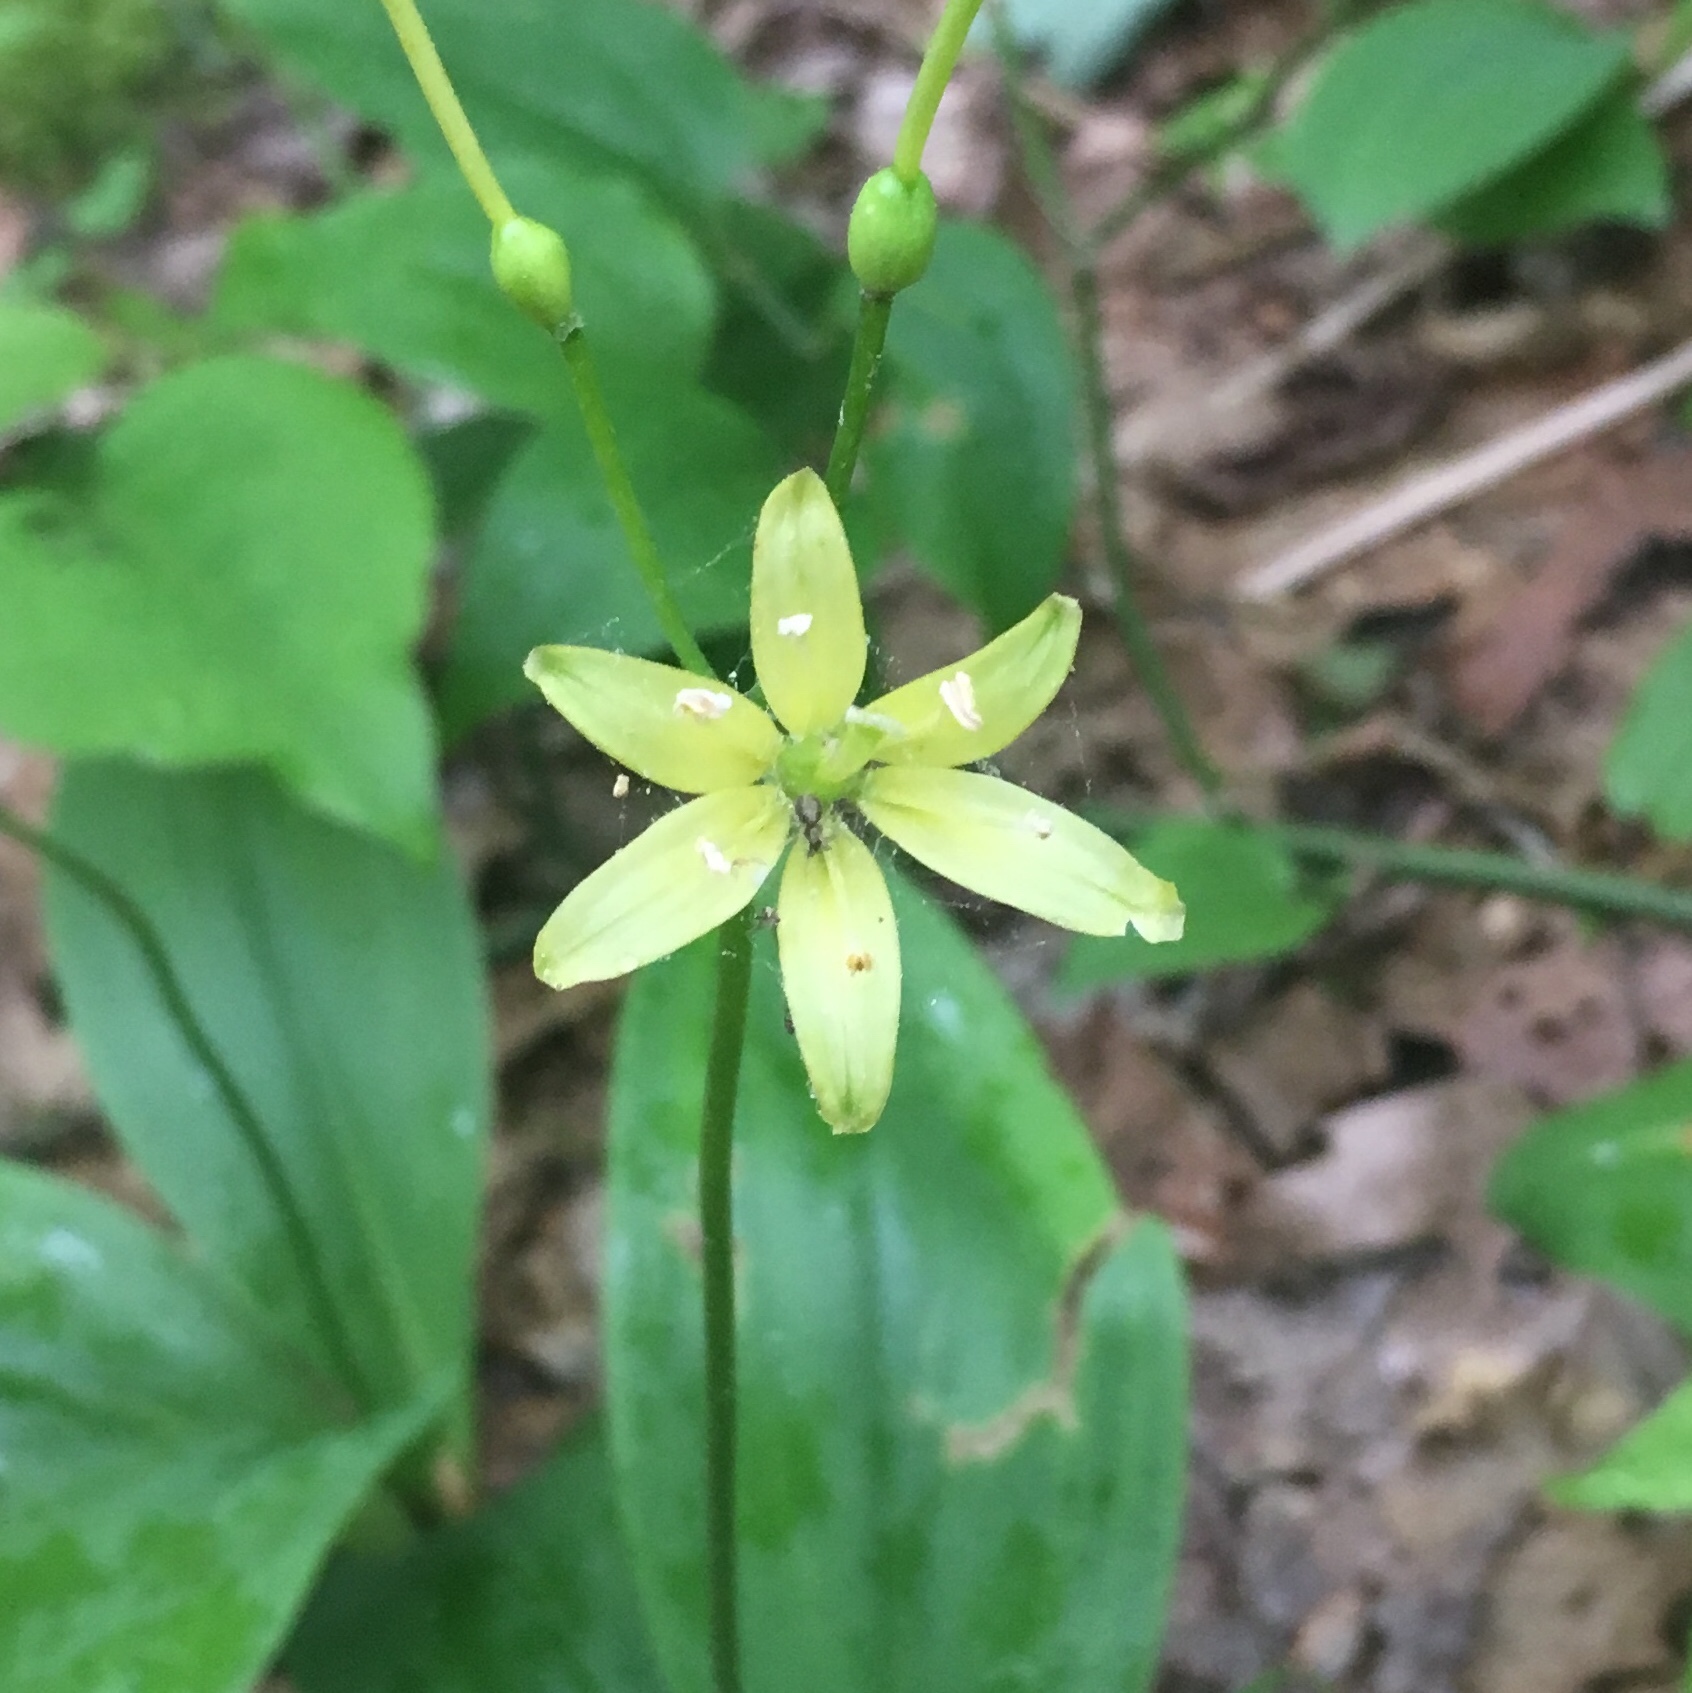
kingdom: Plantae
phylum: Tracheophyta
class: Liliopsida
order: Liliales
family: Liliaceae
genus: Clintonia
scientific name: Clintonia borealis
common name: Yellow clintonia
